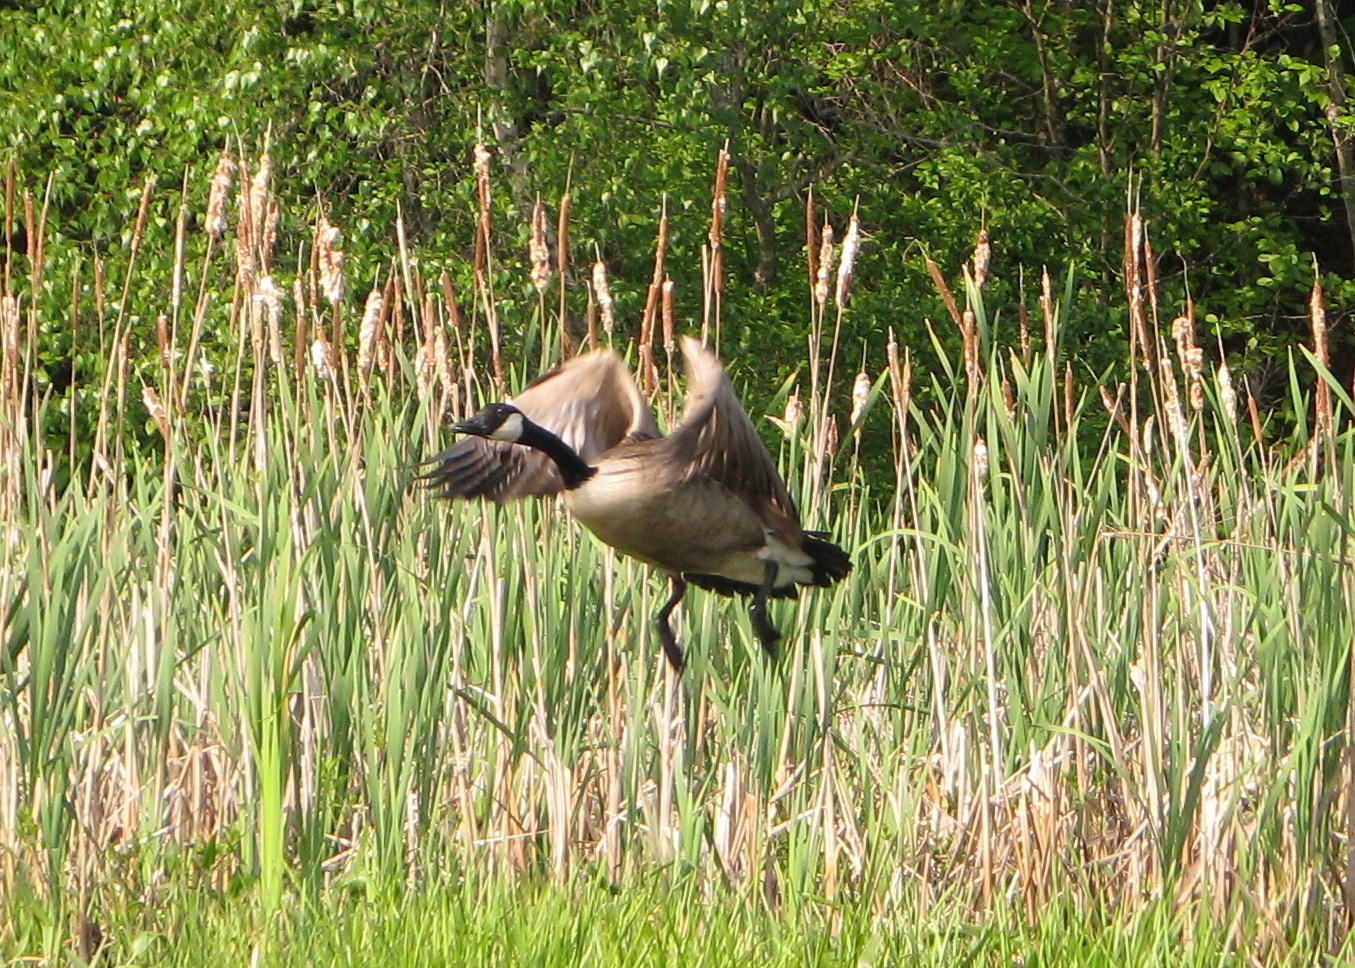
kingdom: Animalia
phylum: Chordata
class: Aves
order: Anseriformes
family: Anatidae
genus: Branta
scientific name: Branta canadensis
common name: Canada goose
